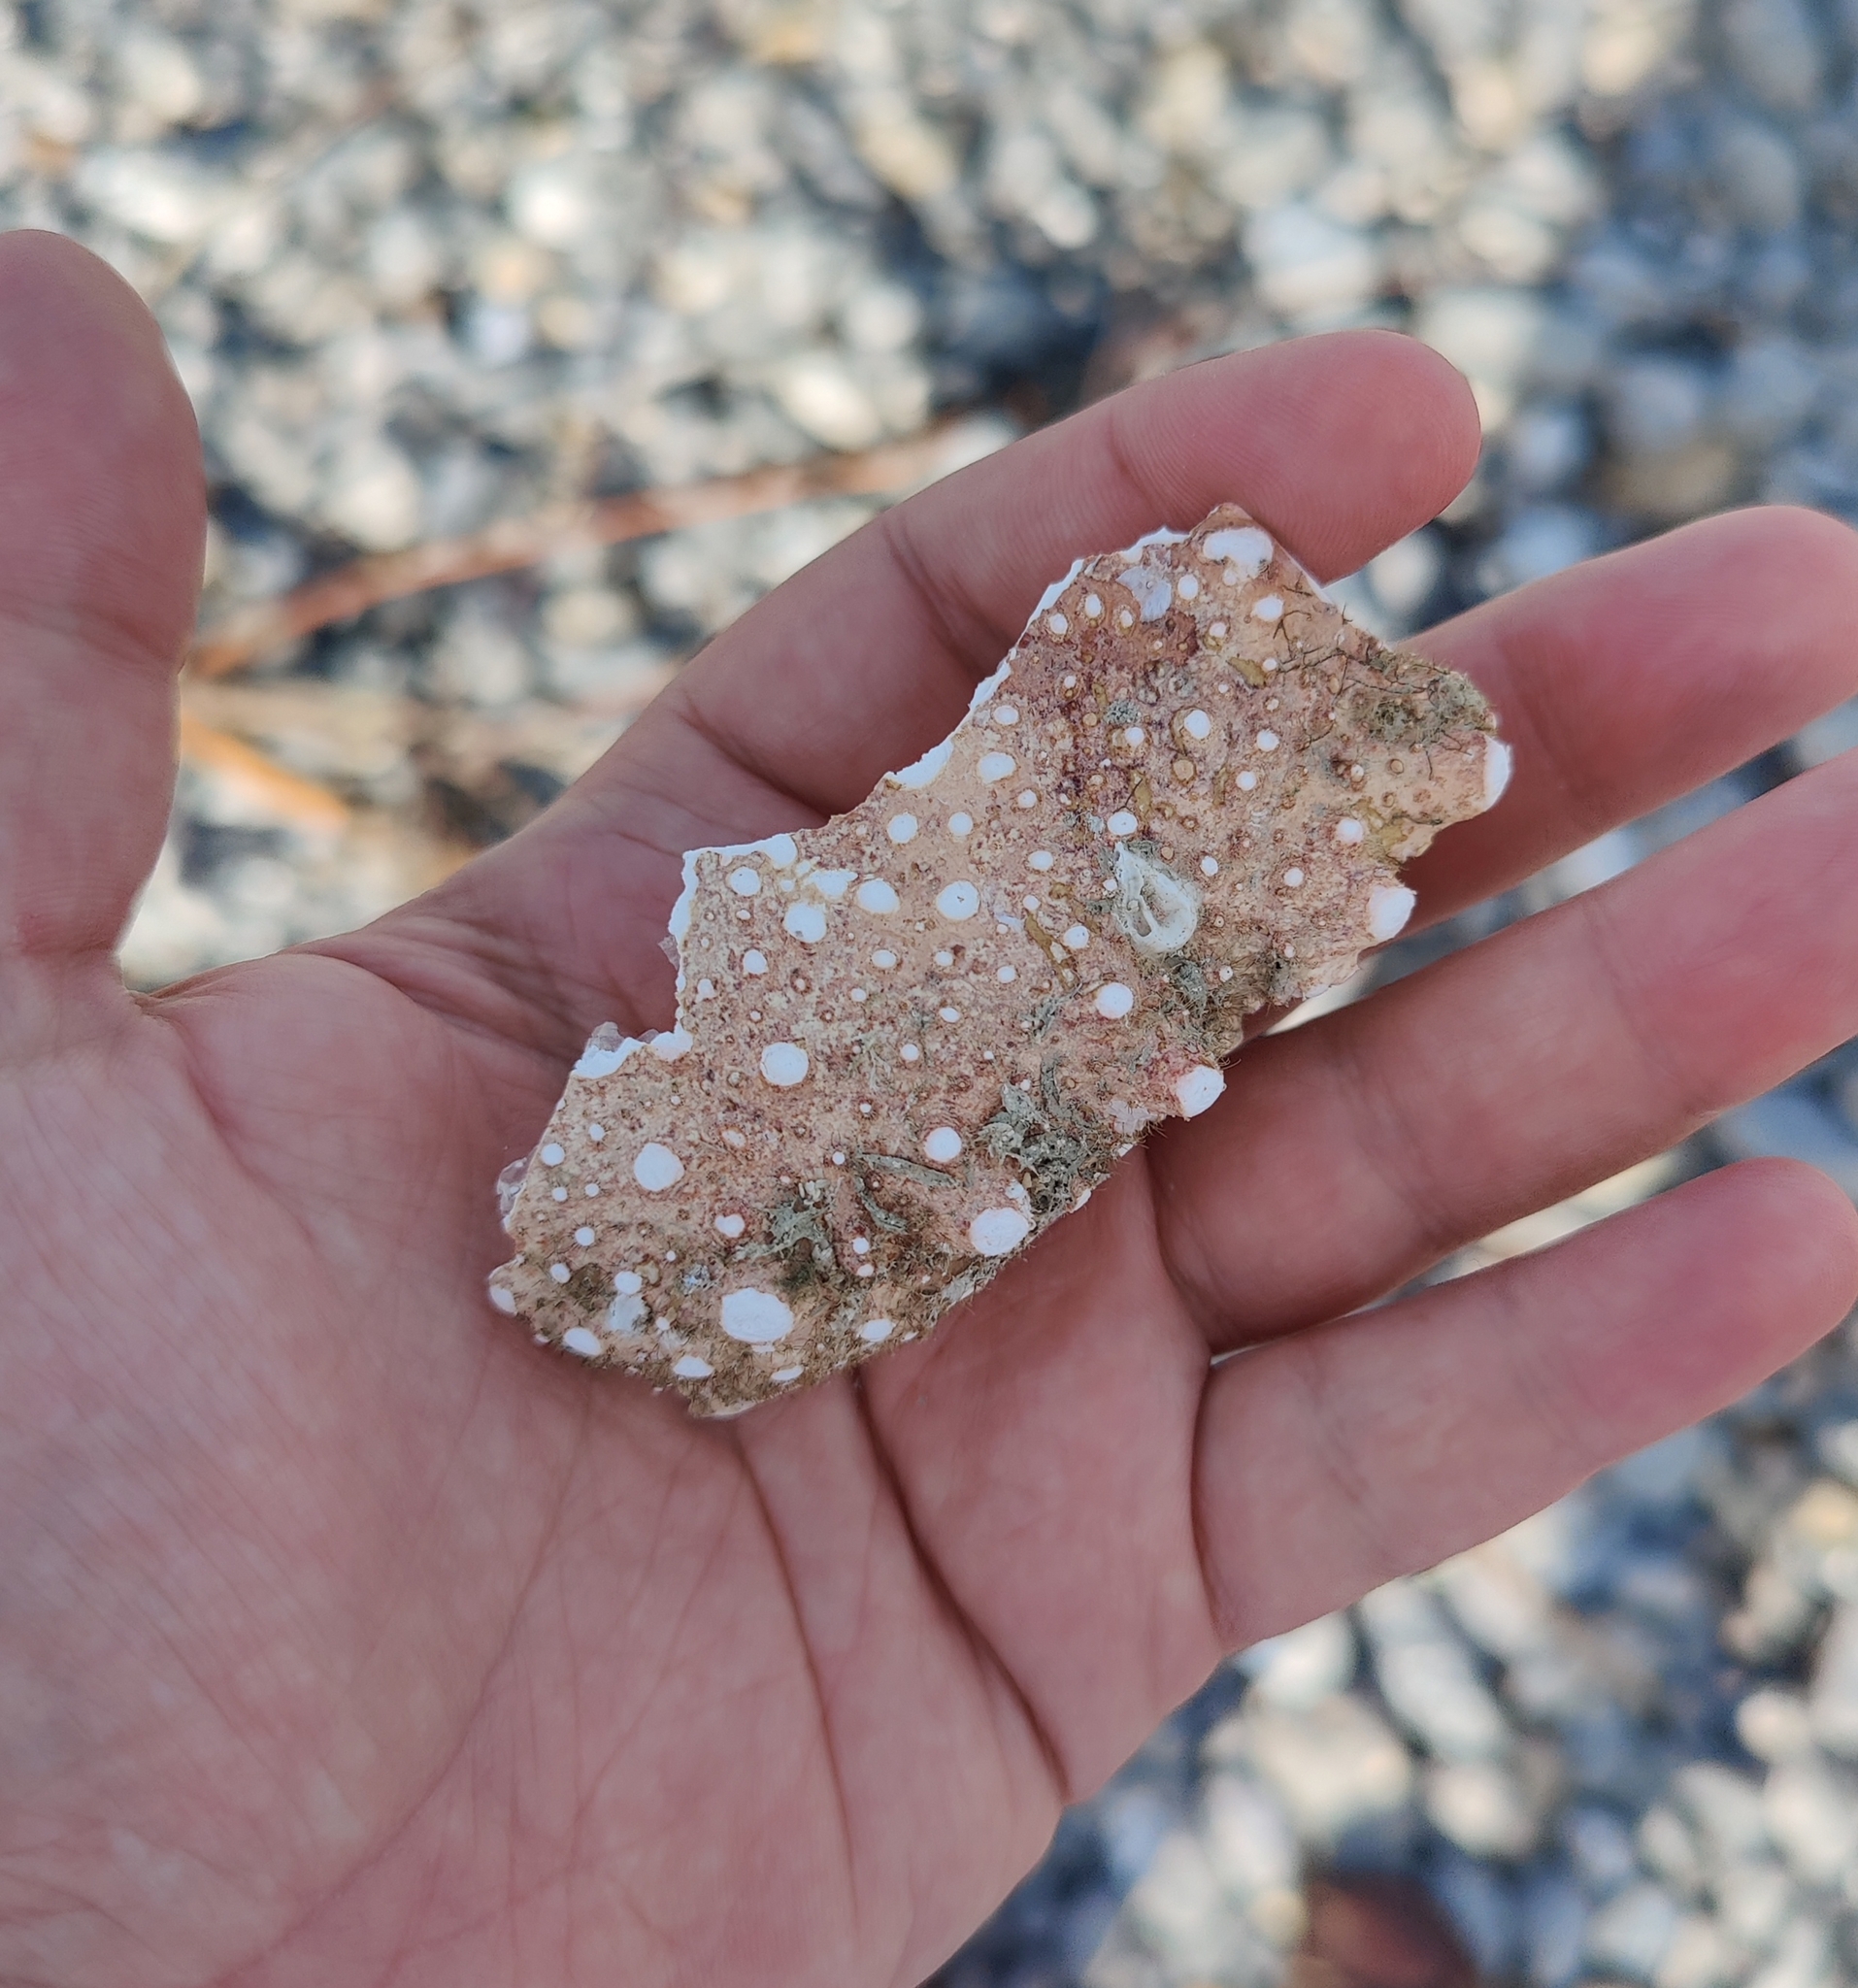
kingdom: Animalia
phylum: Arthropoda
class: Malacostraca
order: Decapoda
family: Majidae
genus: Maja
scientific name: Maja brachydactyla
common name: Common spider crab
